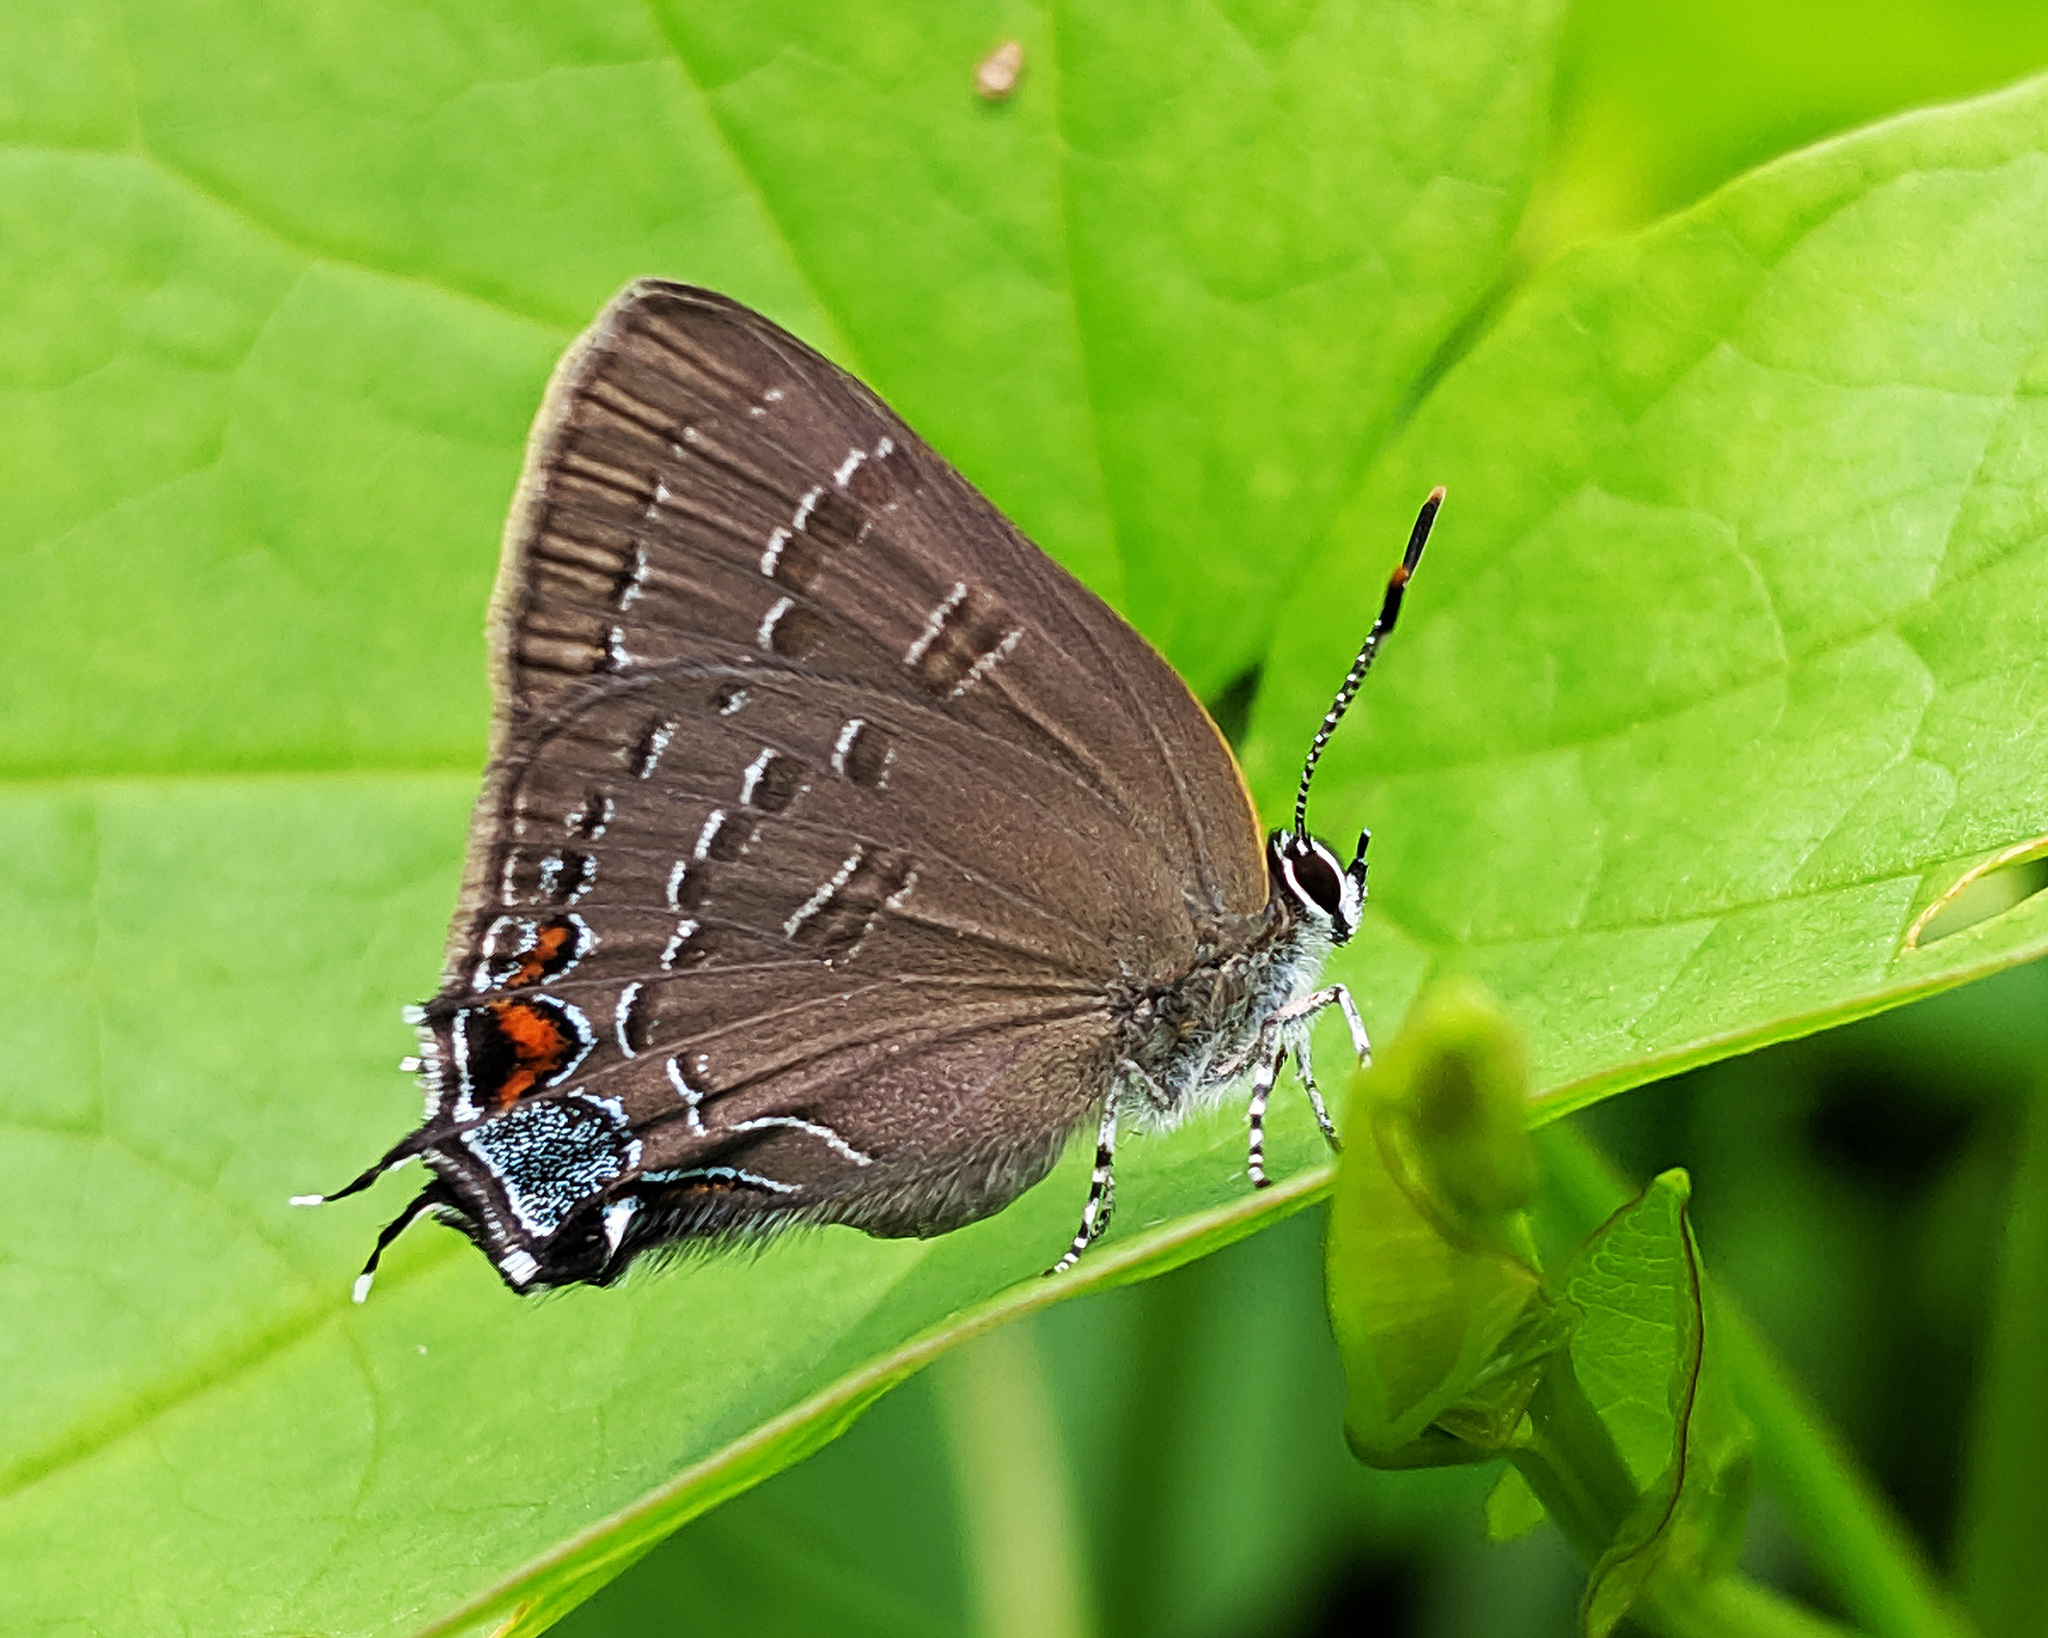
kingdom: Animalia
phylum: Arthropoda
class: Insecta
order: Lepidoptera
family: Lycaenidae
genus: Satyrium
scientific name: Satyrium calanus
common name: Banded hairstreak
